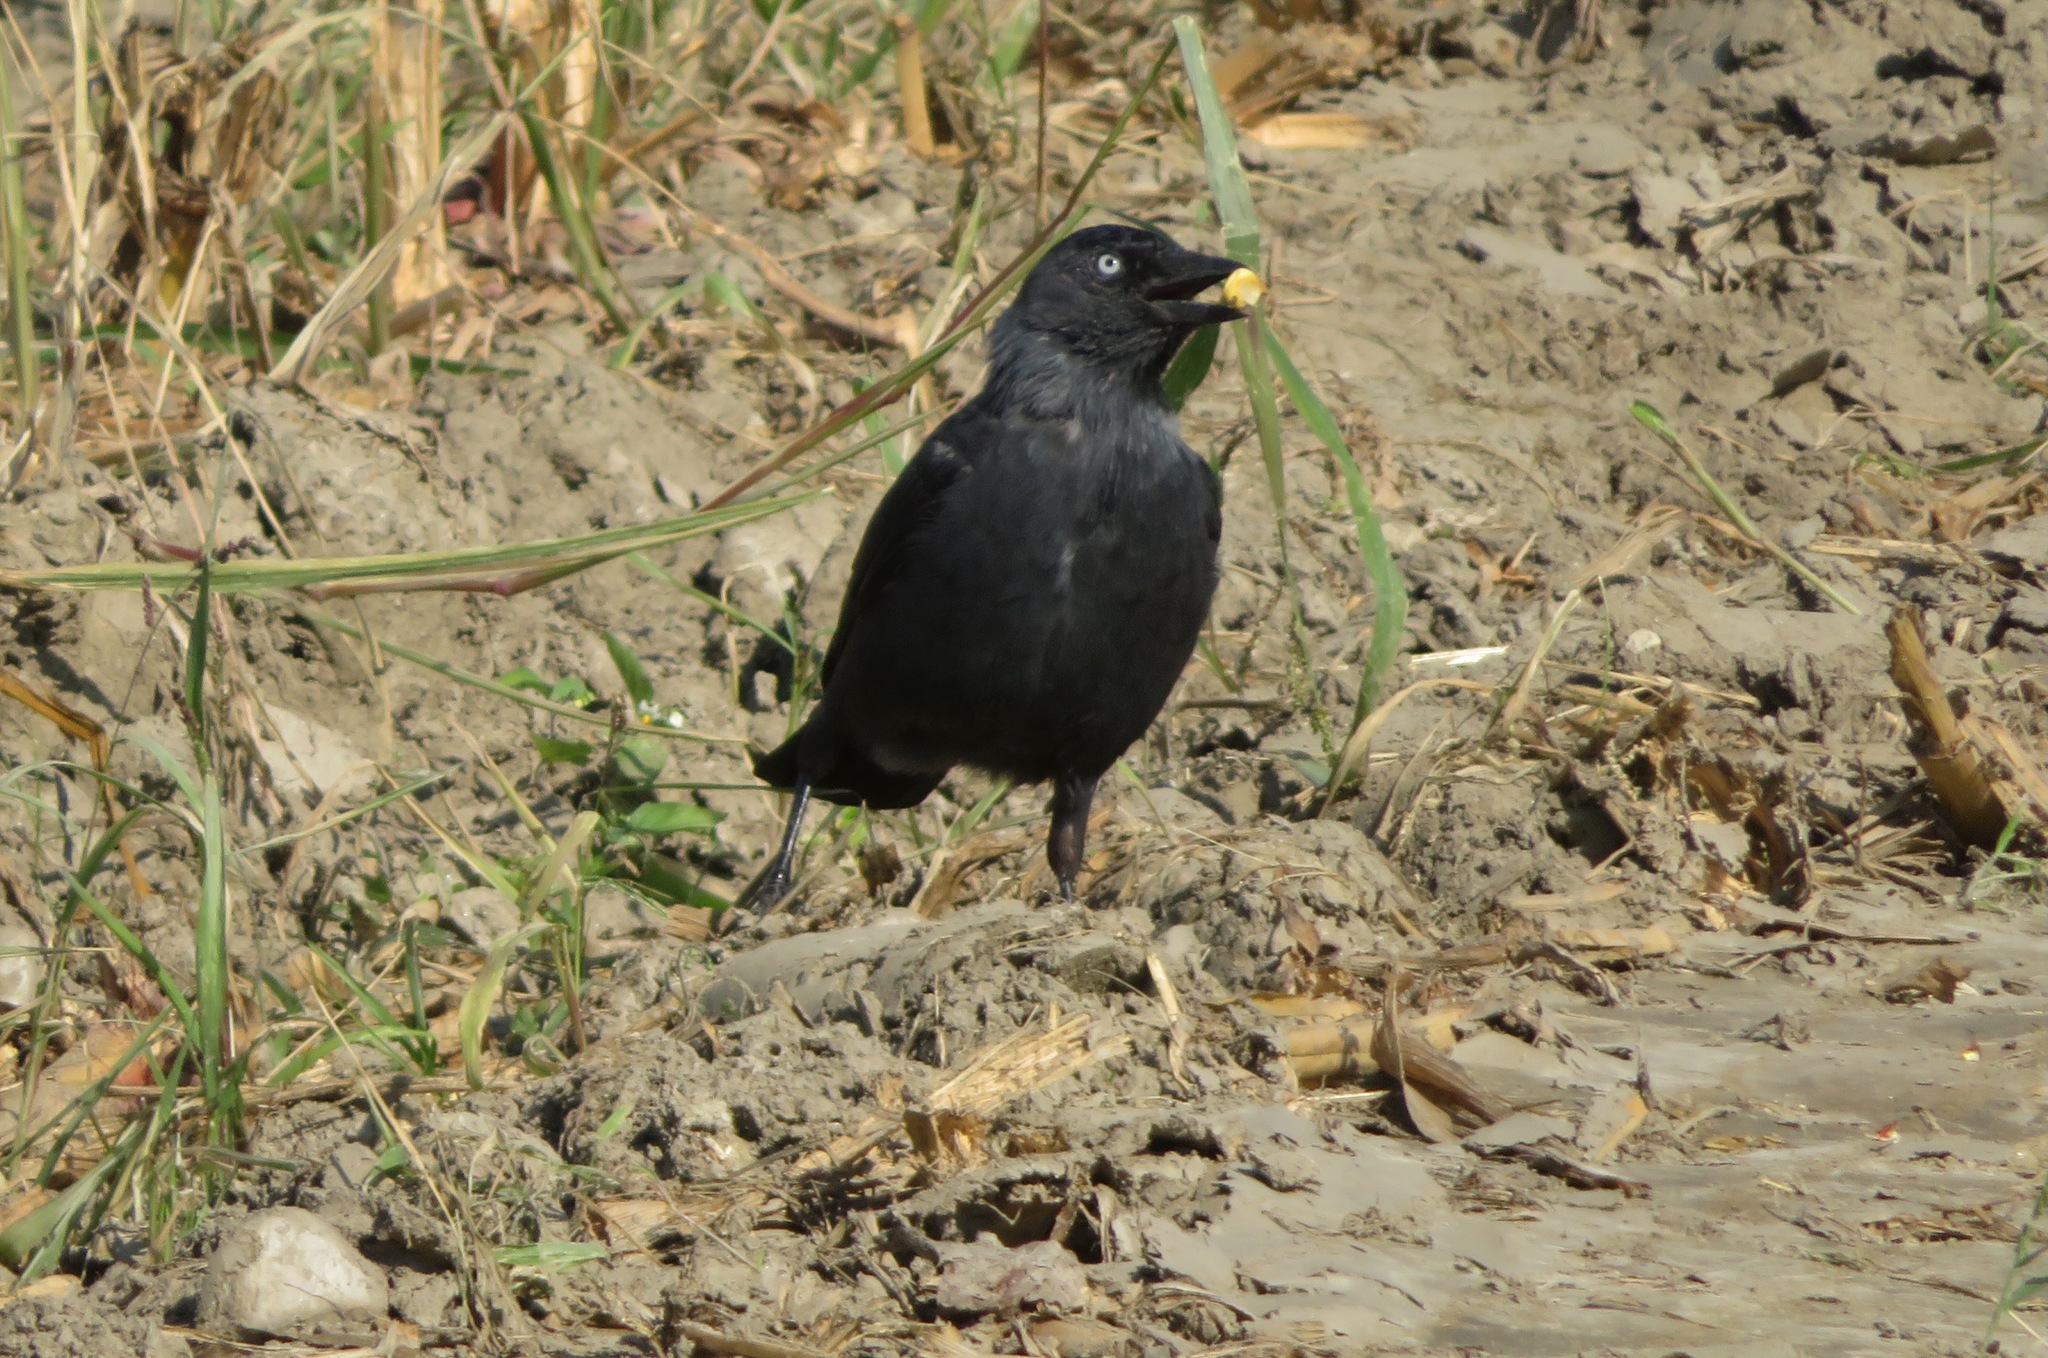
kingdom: Animalia
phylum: Chordata
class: Aves
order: Passeriformes
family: Corvidae
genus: Coloeus
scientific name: Coloeus monedula
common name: Western jackdaw
